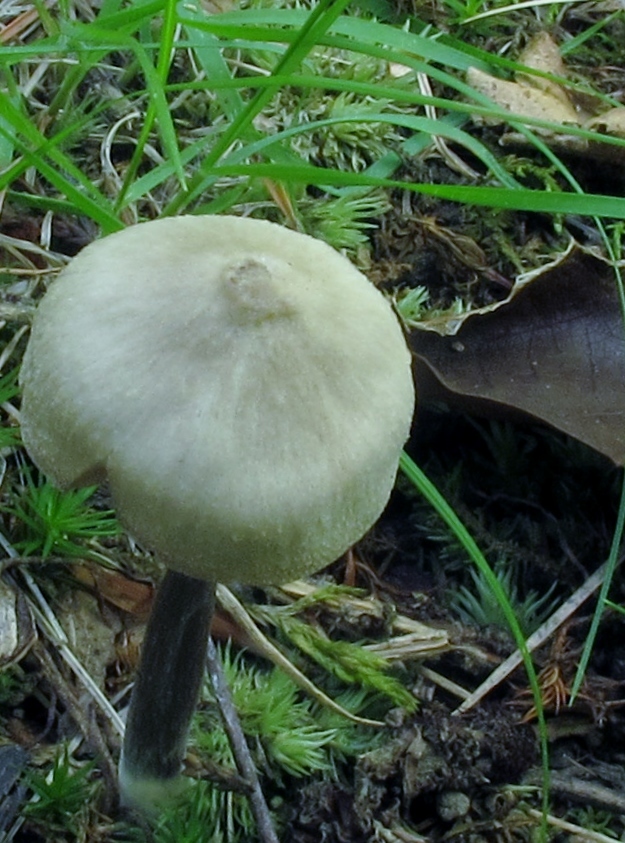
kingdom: Fungi
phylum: Basidiomycota
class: Agaricomycetes
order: Agaricales
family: Entolomataceae
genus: Entoloma
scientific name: Entoloma conicum
